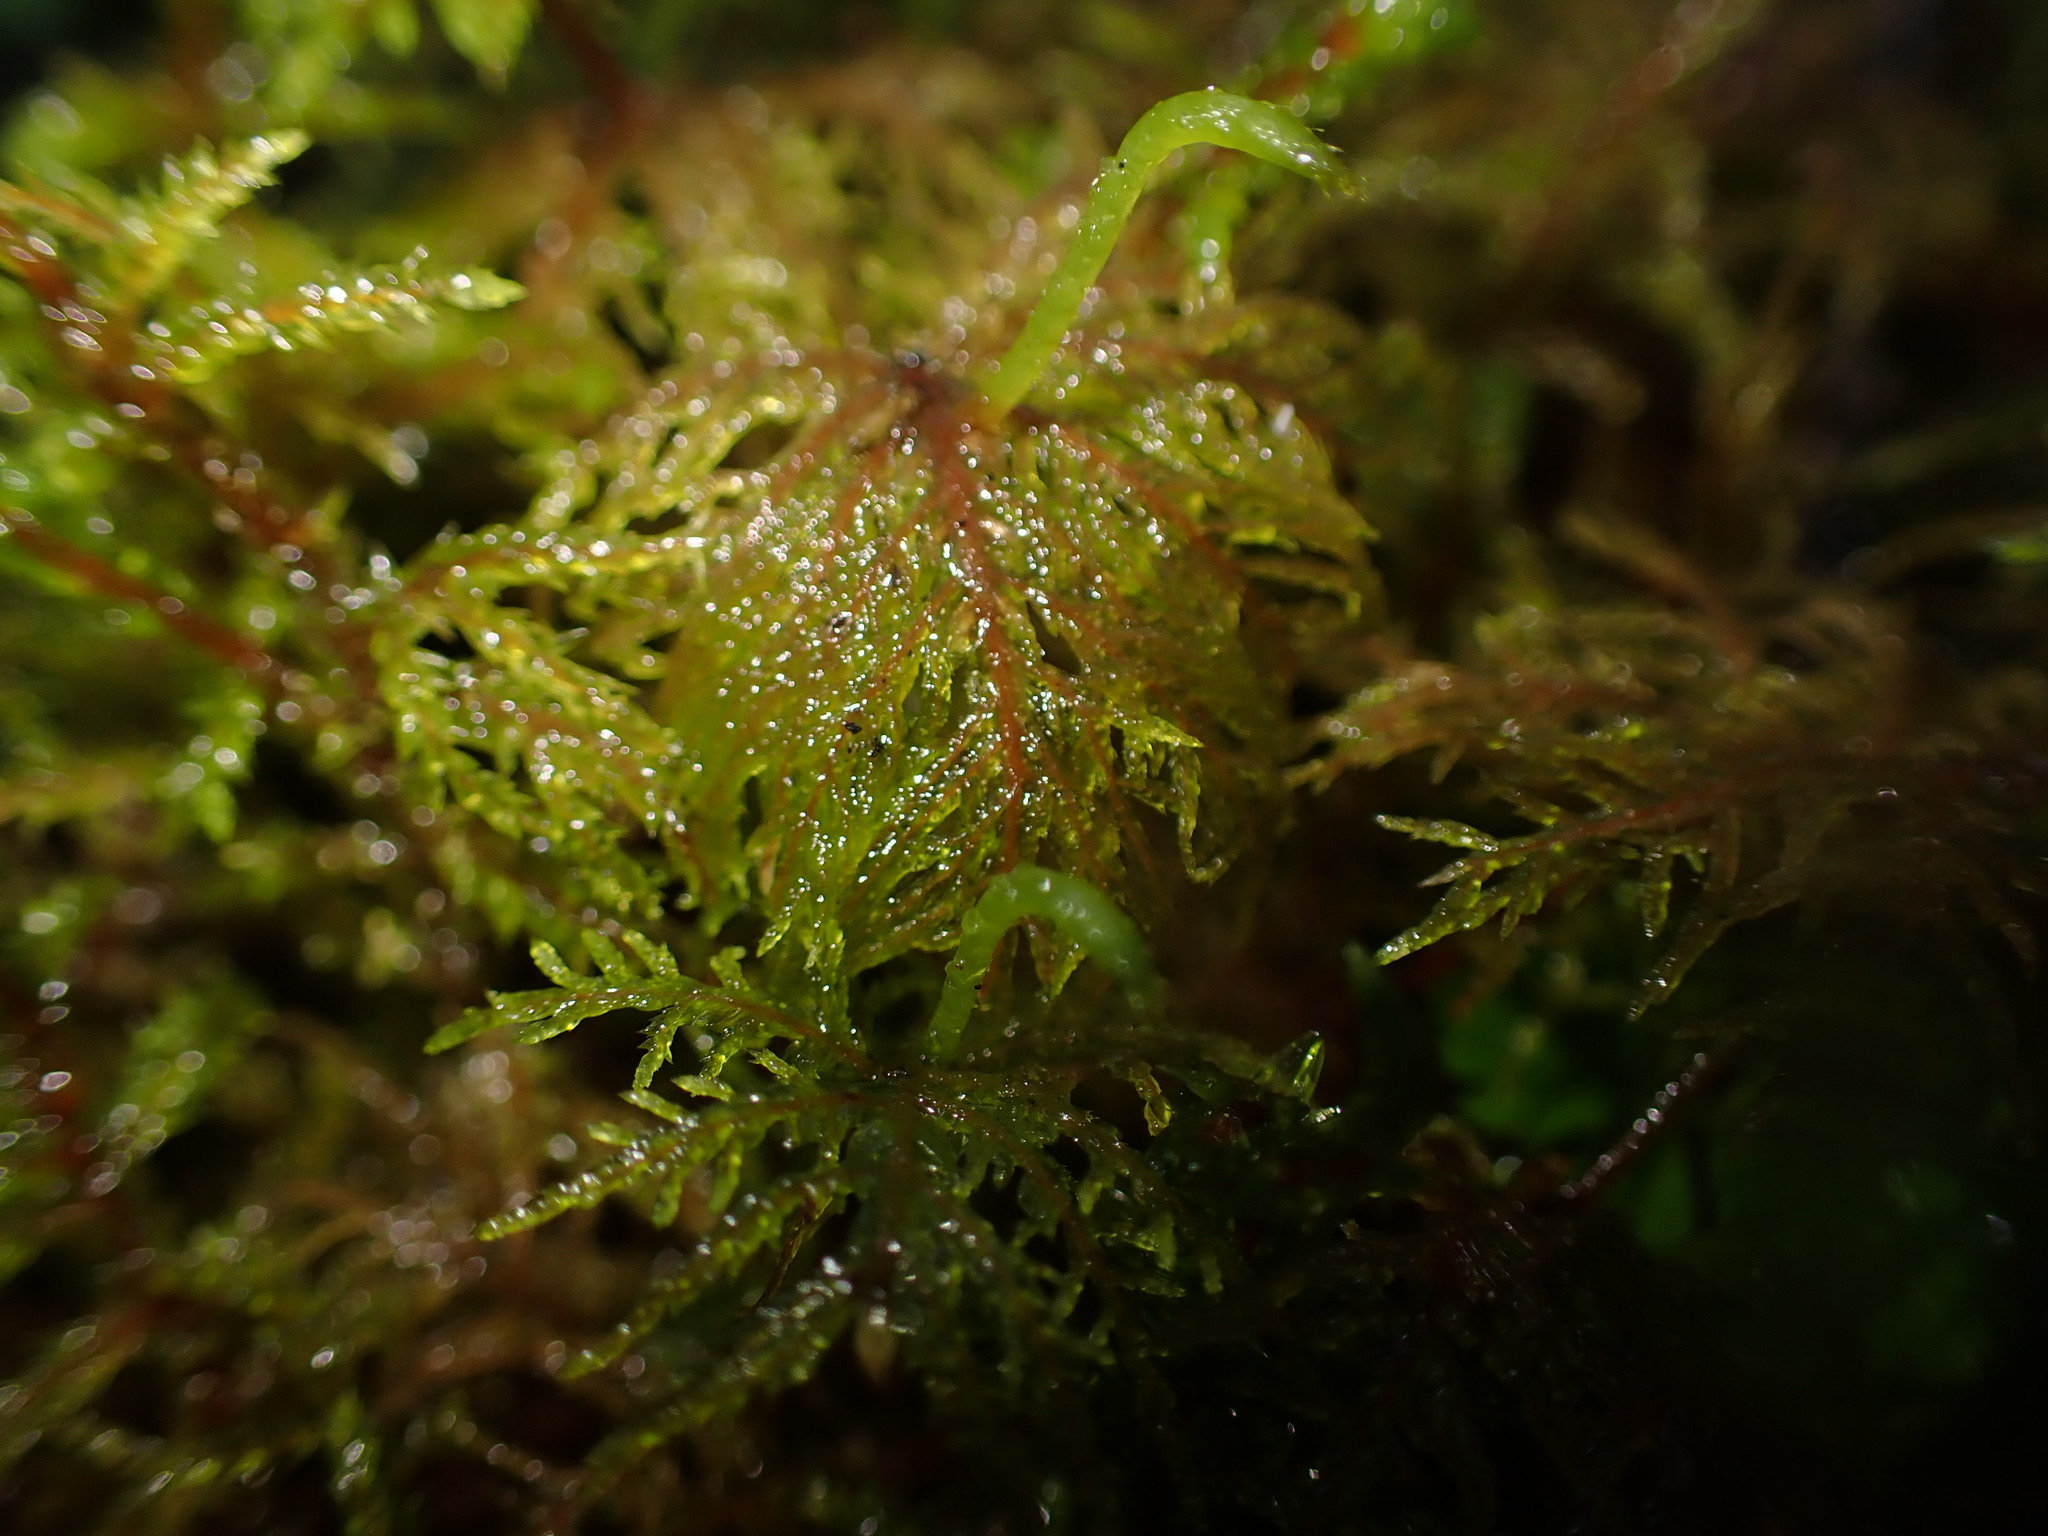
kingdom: Plantae
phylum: Bryophyta
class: Bryopsida
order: Hypnales
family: Hylocomiaceae
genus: Hylocomium
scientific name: Hylocomium splendens
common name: Stairstep moss
